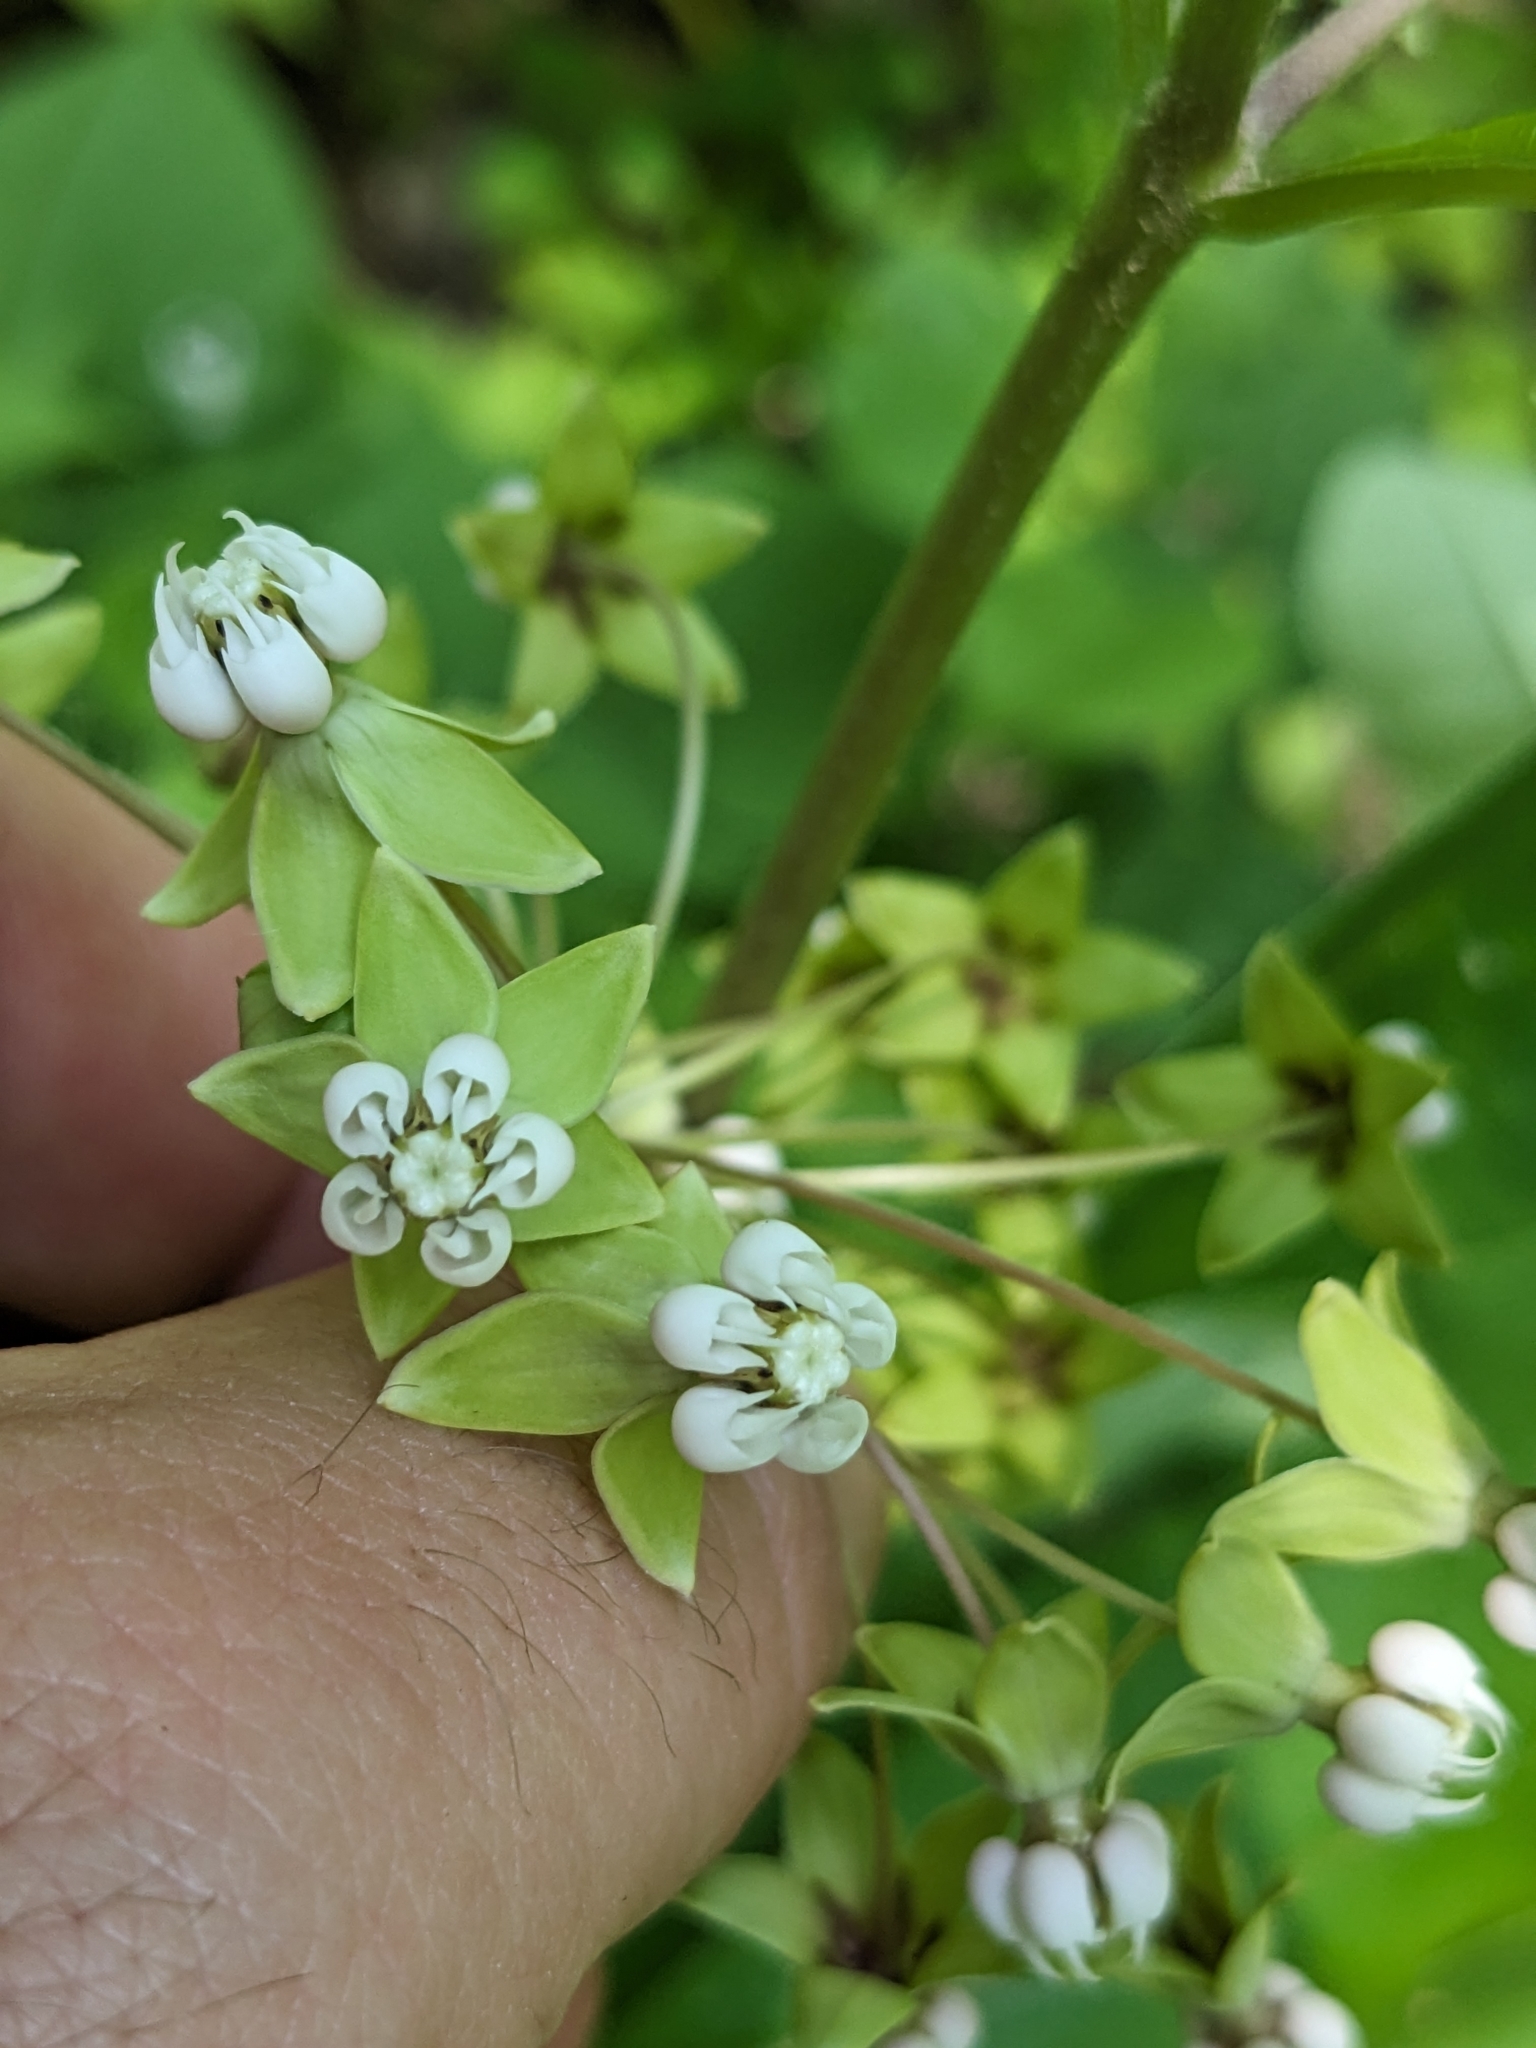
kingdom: Plantae
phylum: Tracheophyta
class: Magnoliopsida
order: Gentianales
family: Apocynaceae
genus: Asclepias
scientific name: Asclepias exaltata
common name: Poke milkweed
